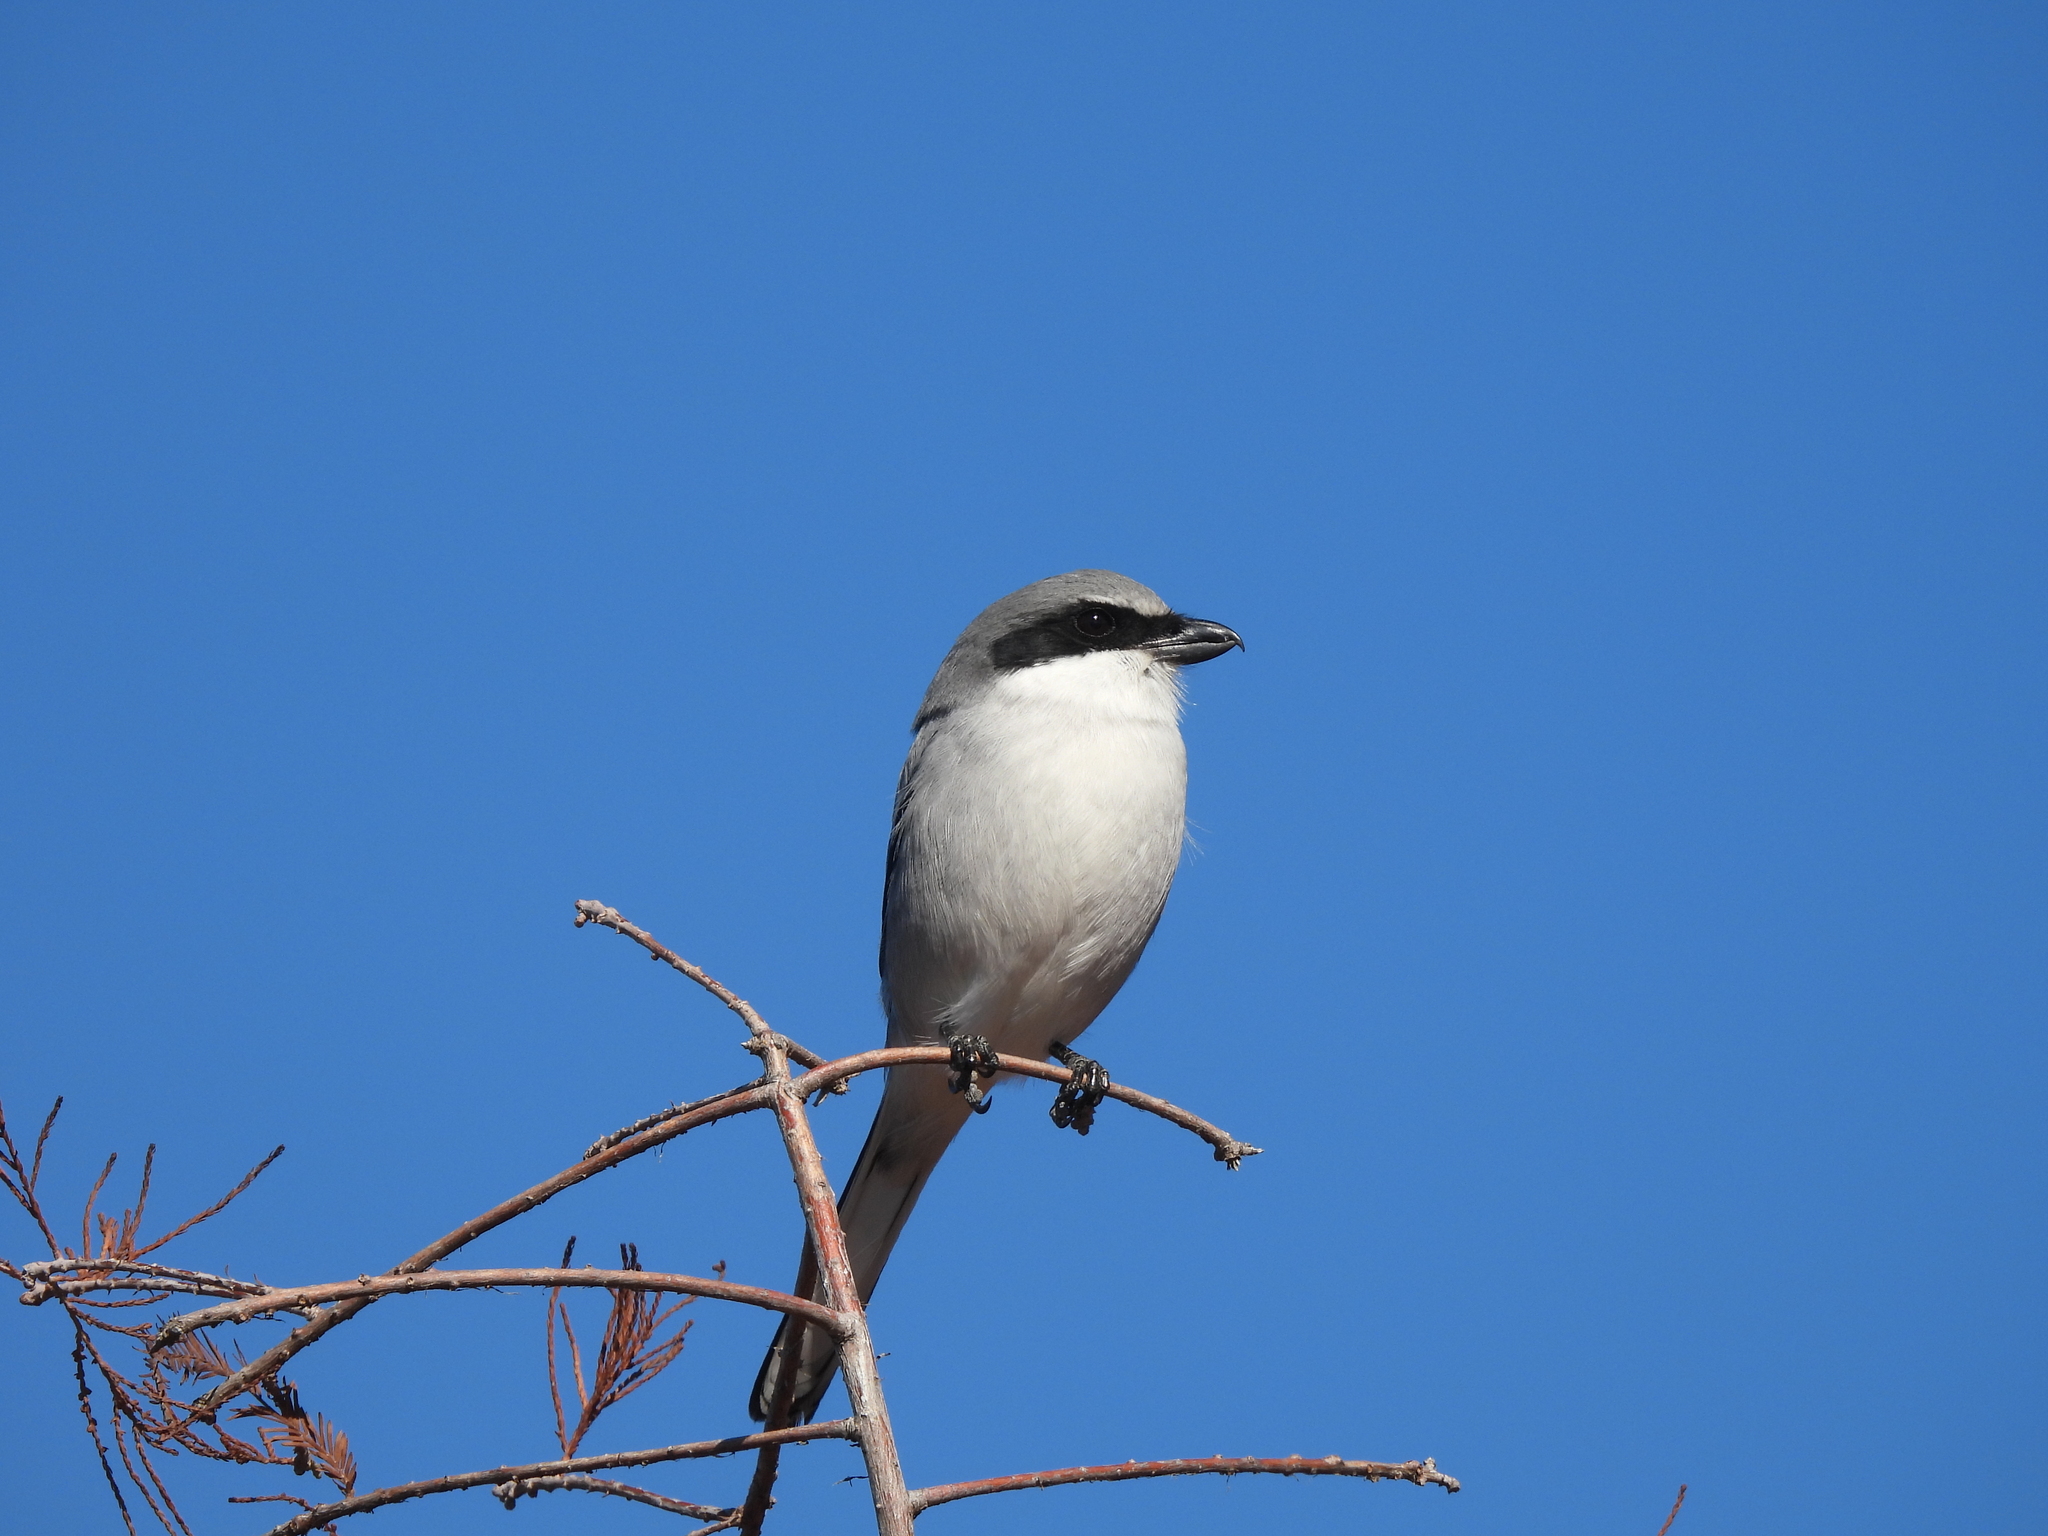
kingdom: Animalia
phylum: Chordata
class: Aves
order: Passeriformes
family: Laniidae
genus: Lanius
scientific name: Lanius ludovicianus
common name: Loggerhead shrike
